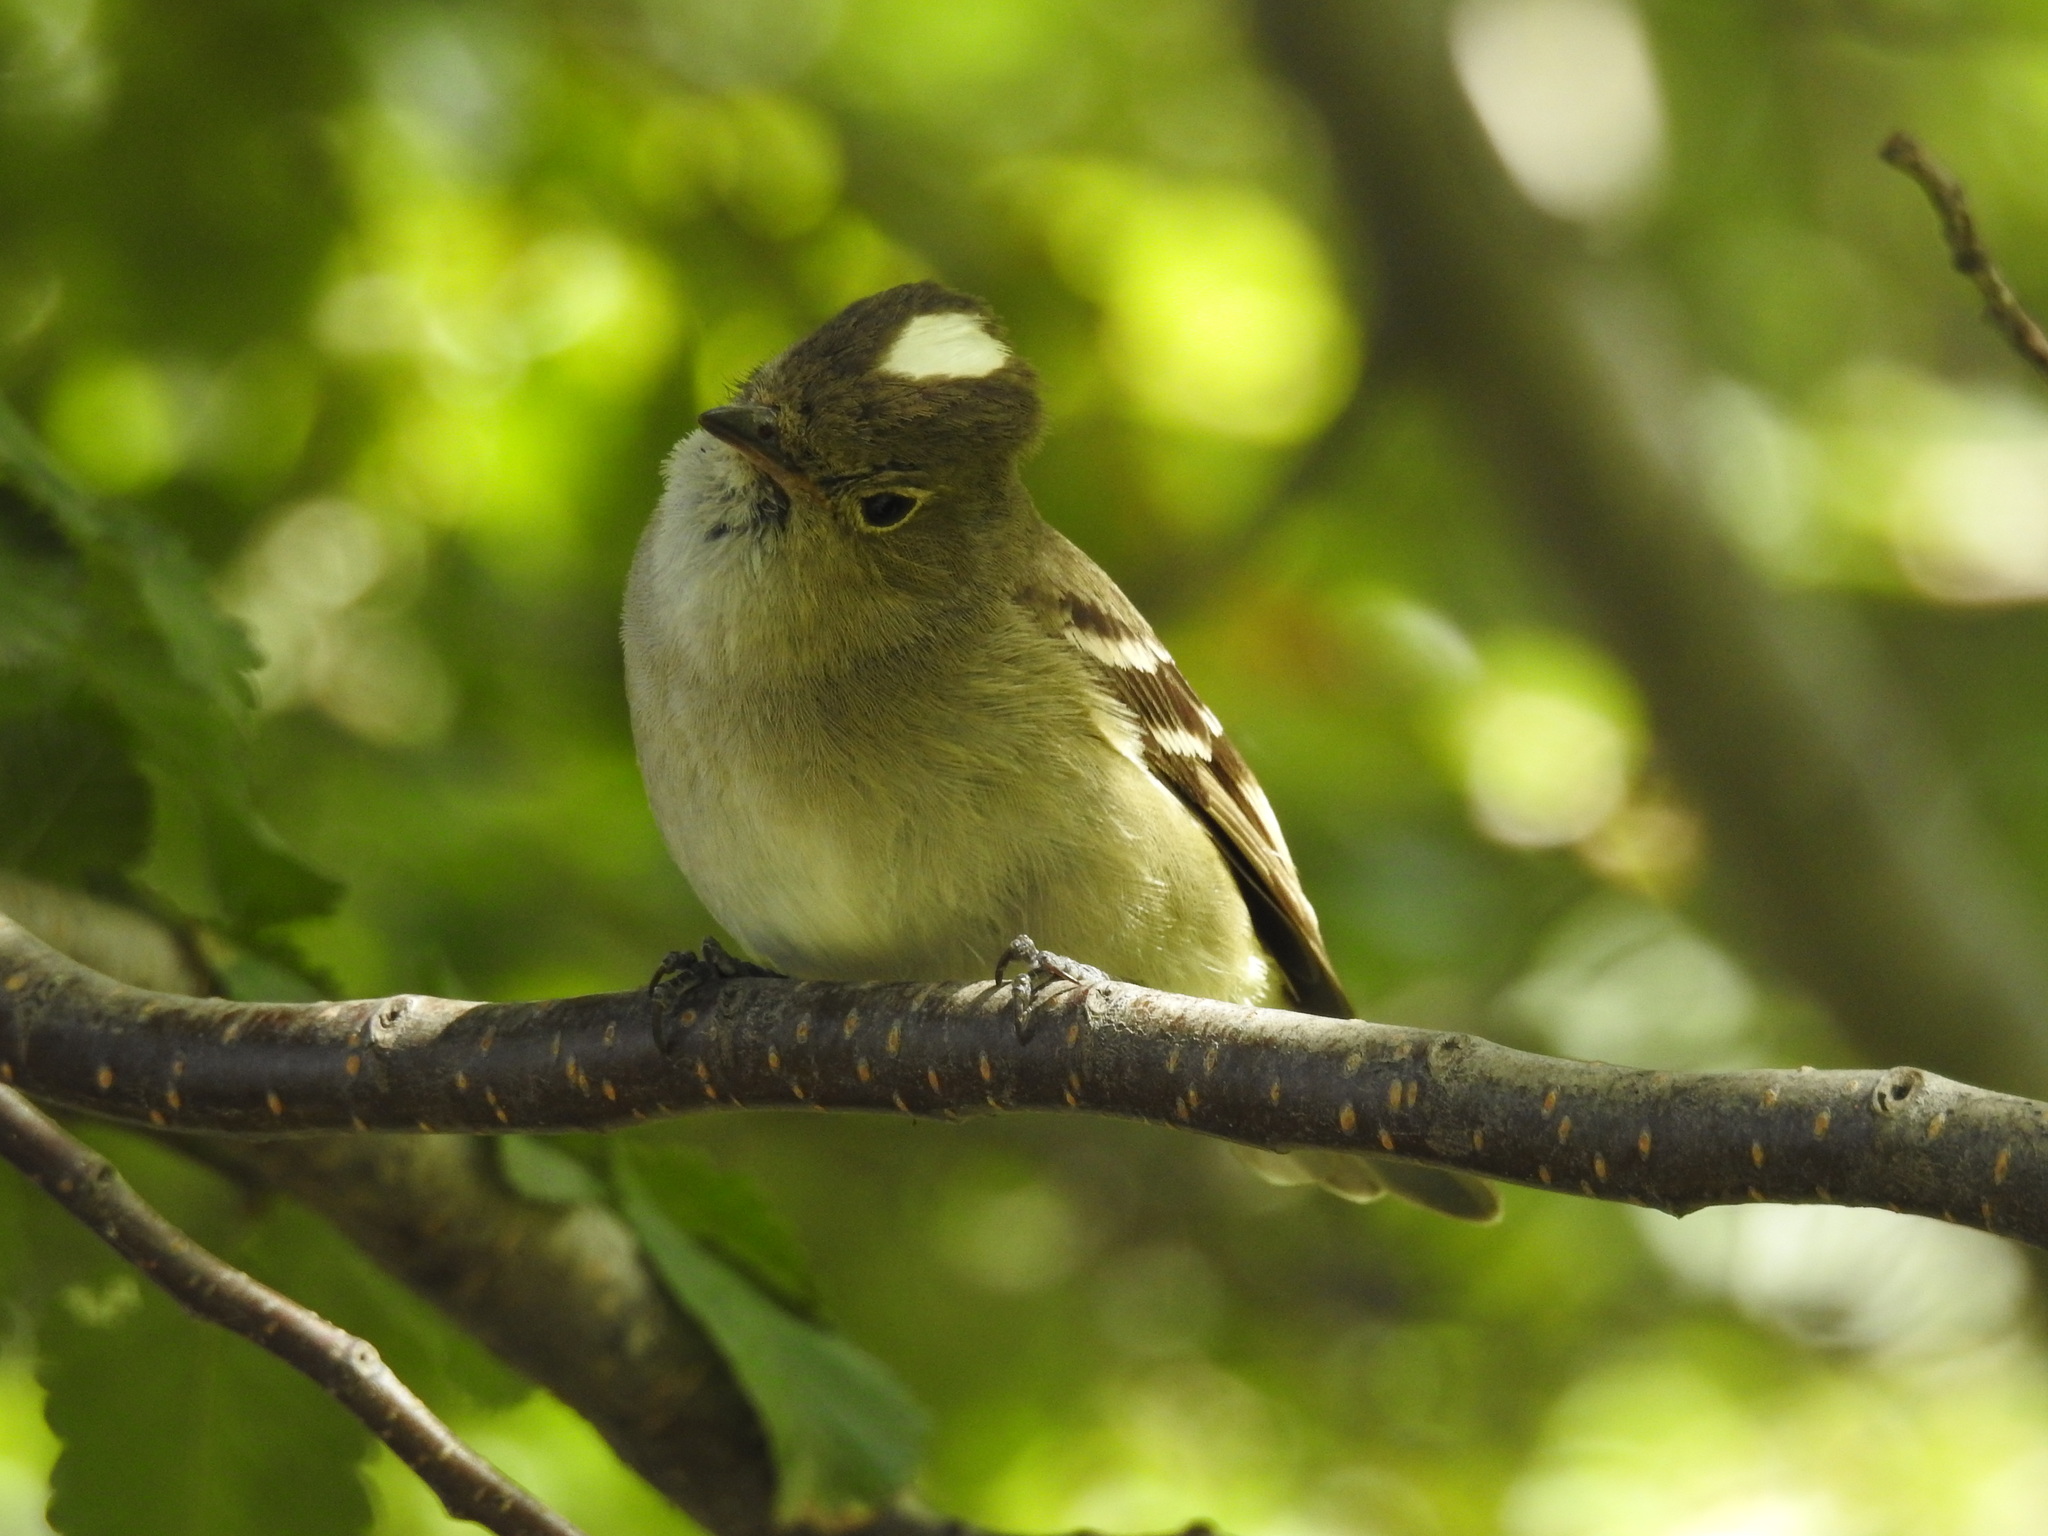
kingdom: Animalia
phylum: Chordata
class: Aves
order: Passeriformes
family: Tyrannidae
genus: Elaenia
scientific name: Elaenia albiceps
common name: White-crested elaenia
